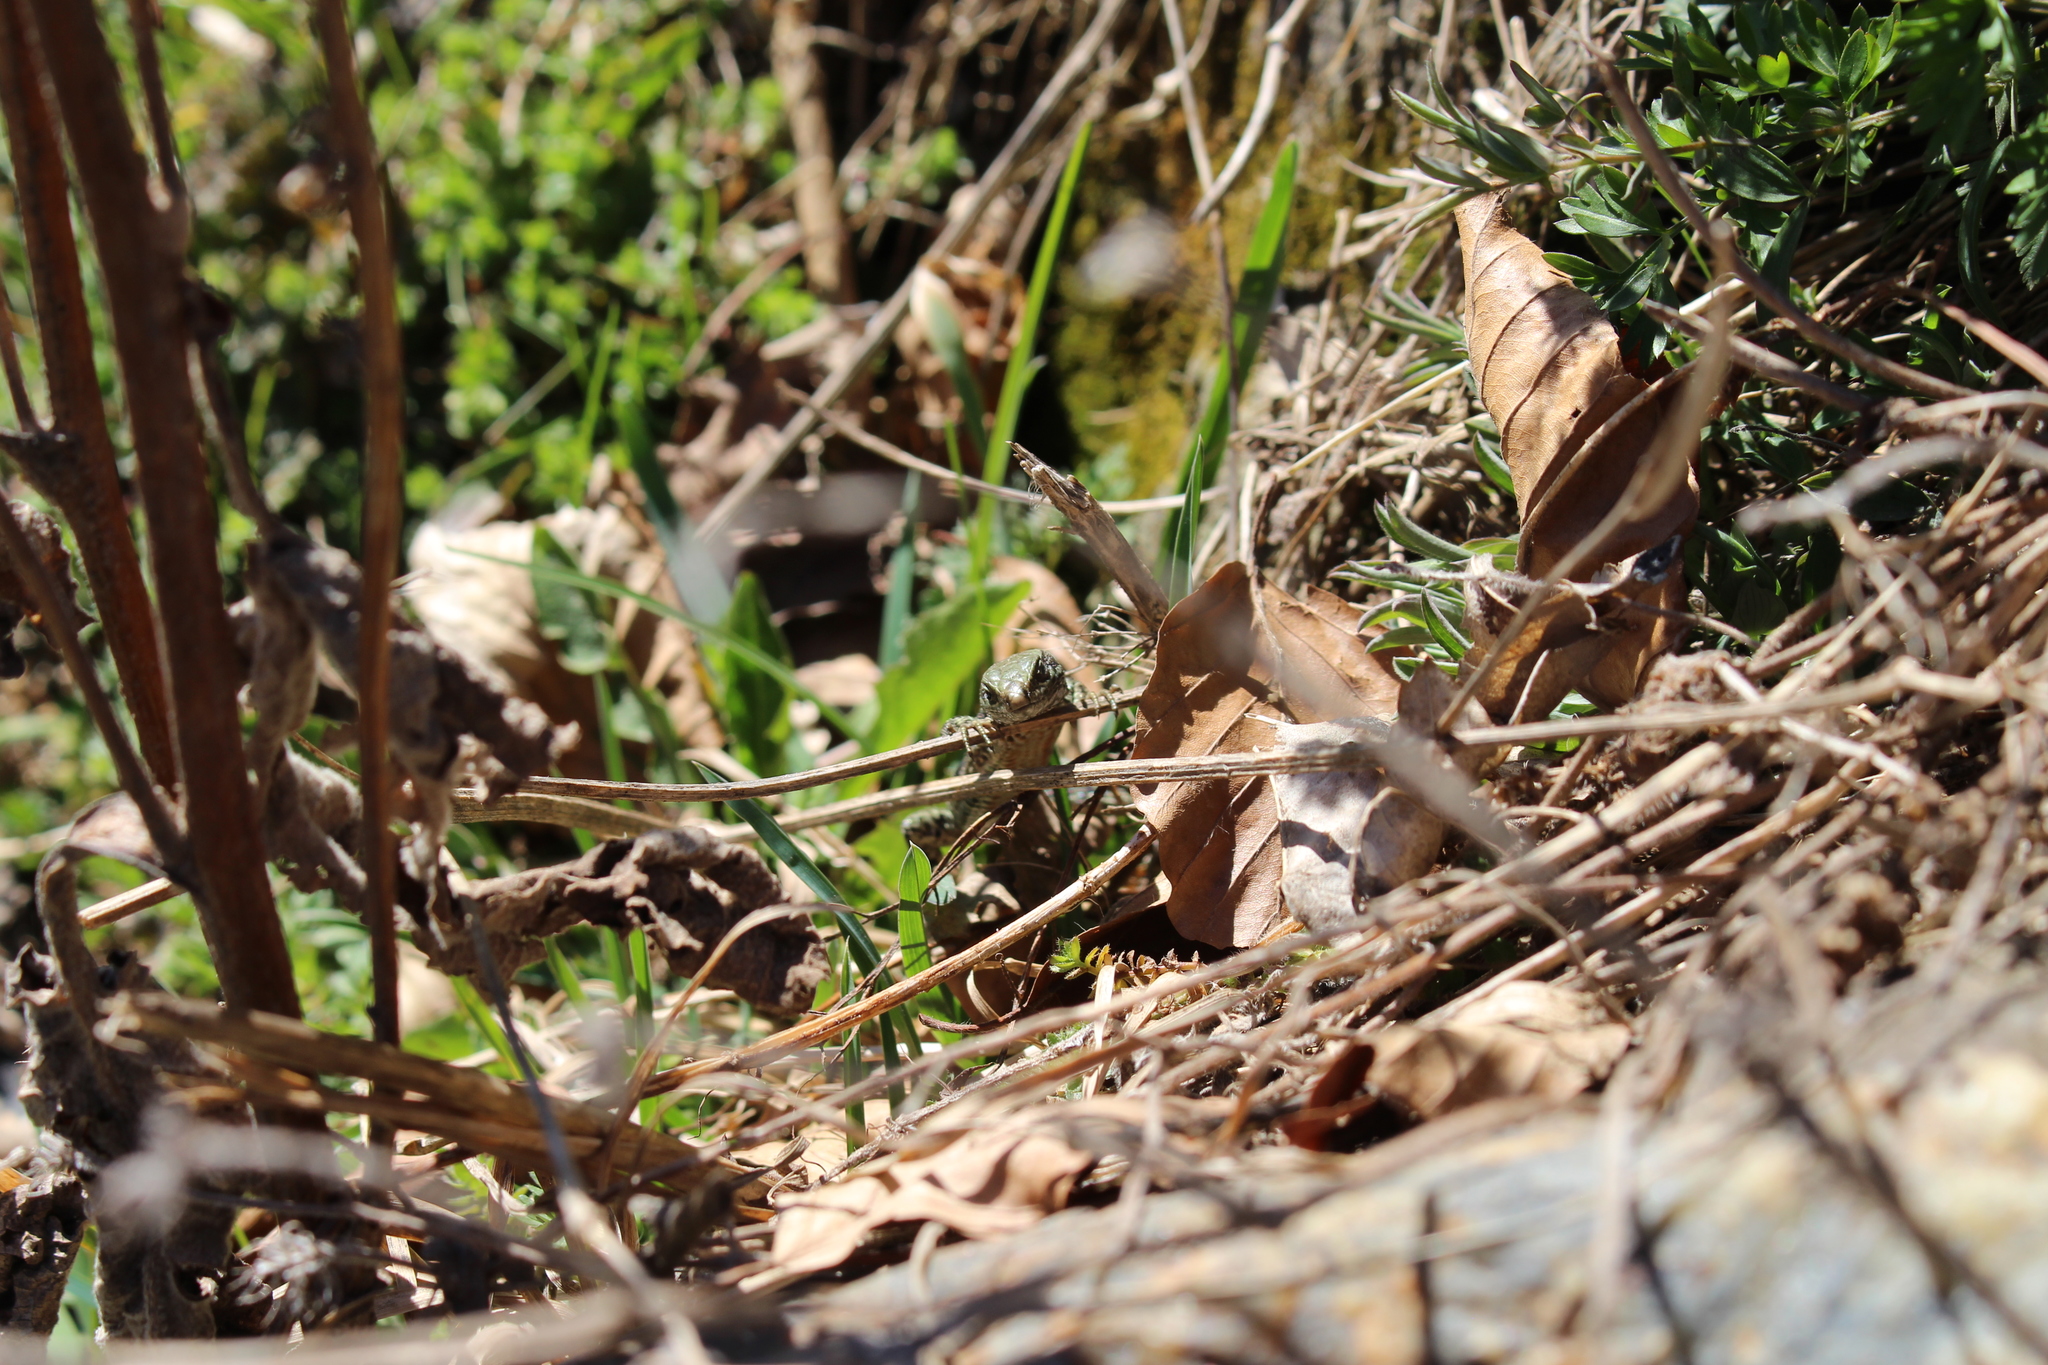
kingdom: Animalia
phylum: Chordata
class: Squamata
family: Lacertidae
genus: Podarcis
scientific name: Podarcis muralis
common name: Common wall lizard
